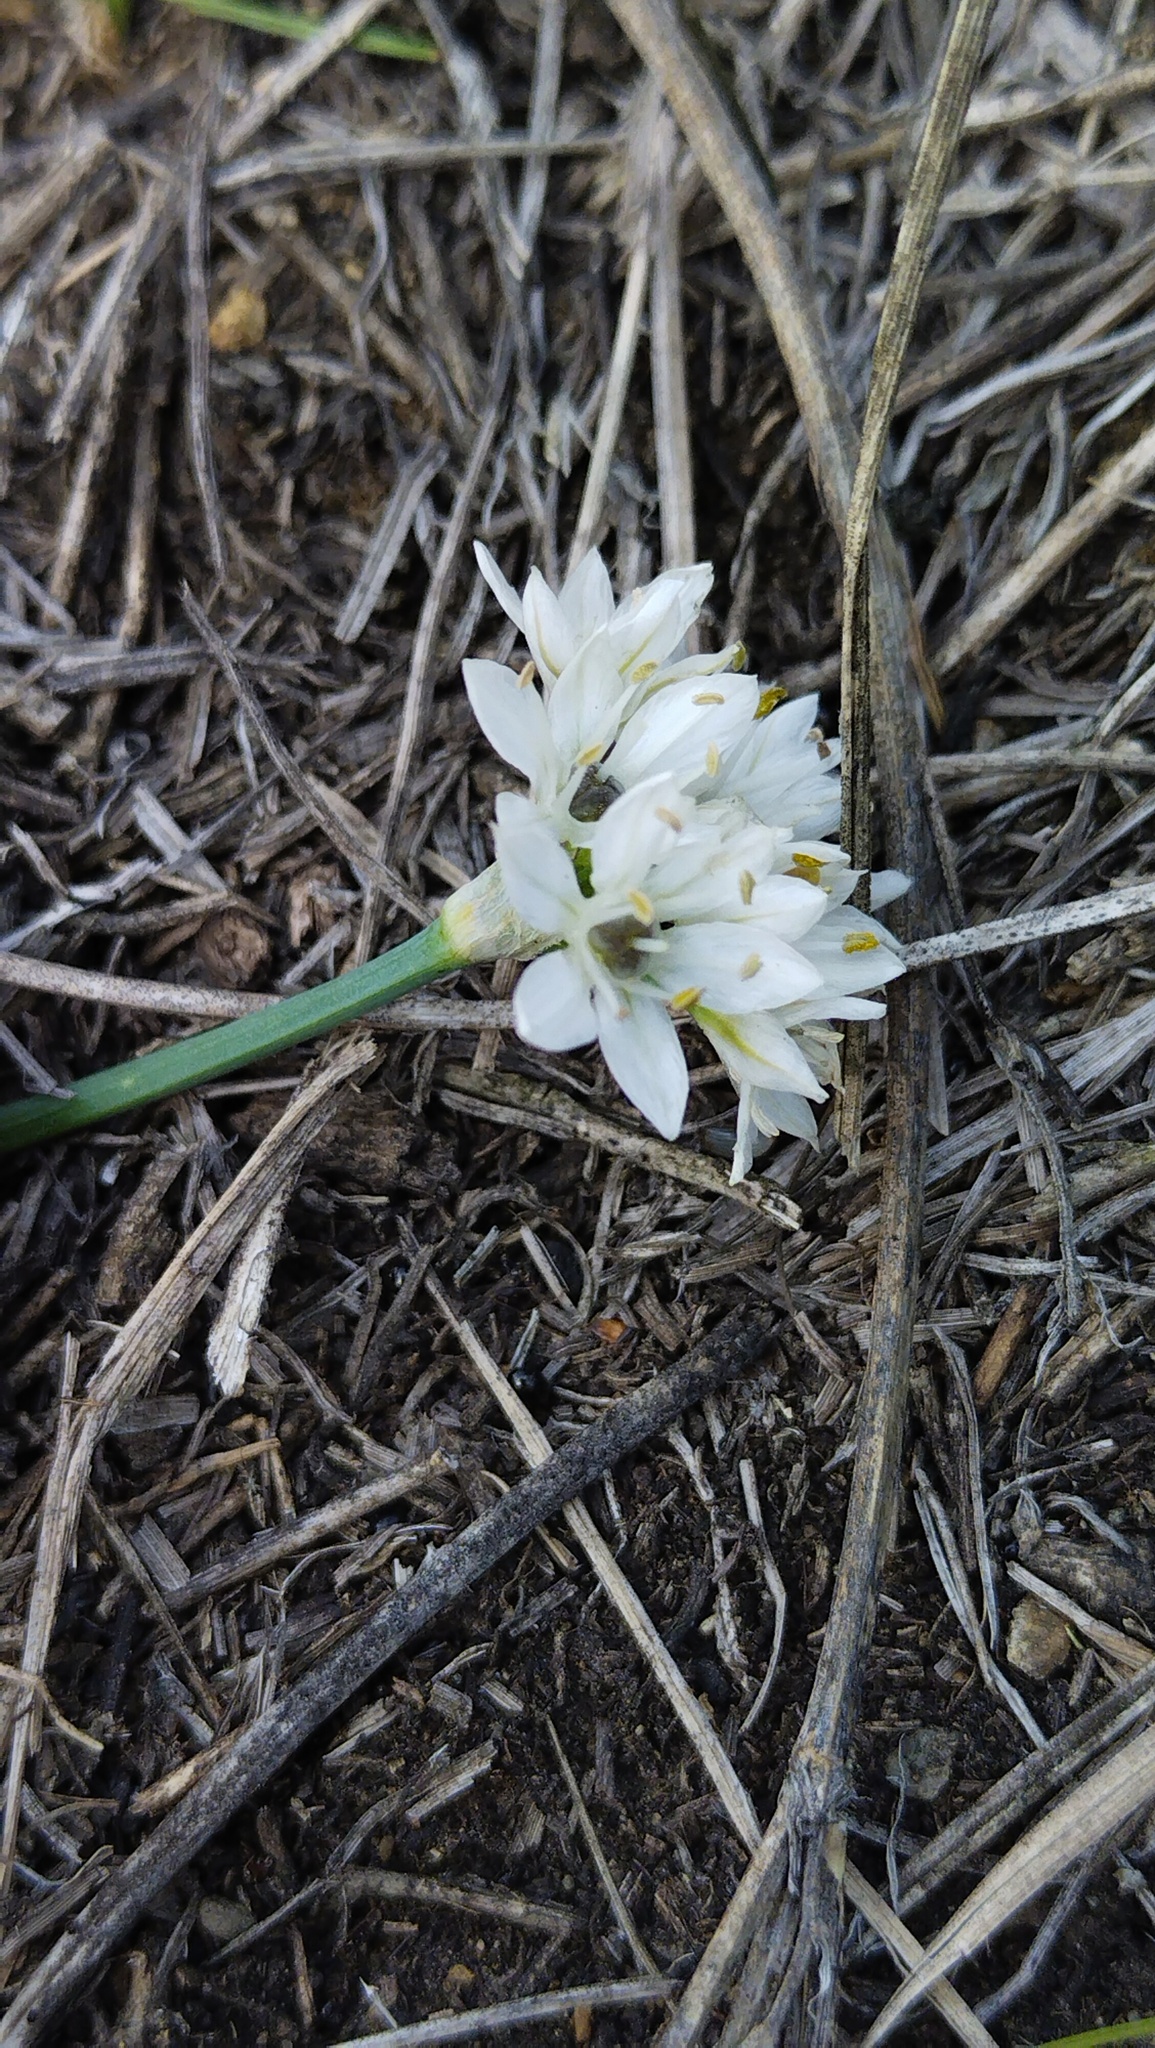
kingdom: Plantae
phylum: Tracheophyta
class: Liliopsida
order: Asparagales
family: Amaryllidaceae
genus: Allium
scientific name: Allium ramosum
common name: Fragrant garlic
